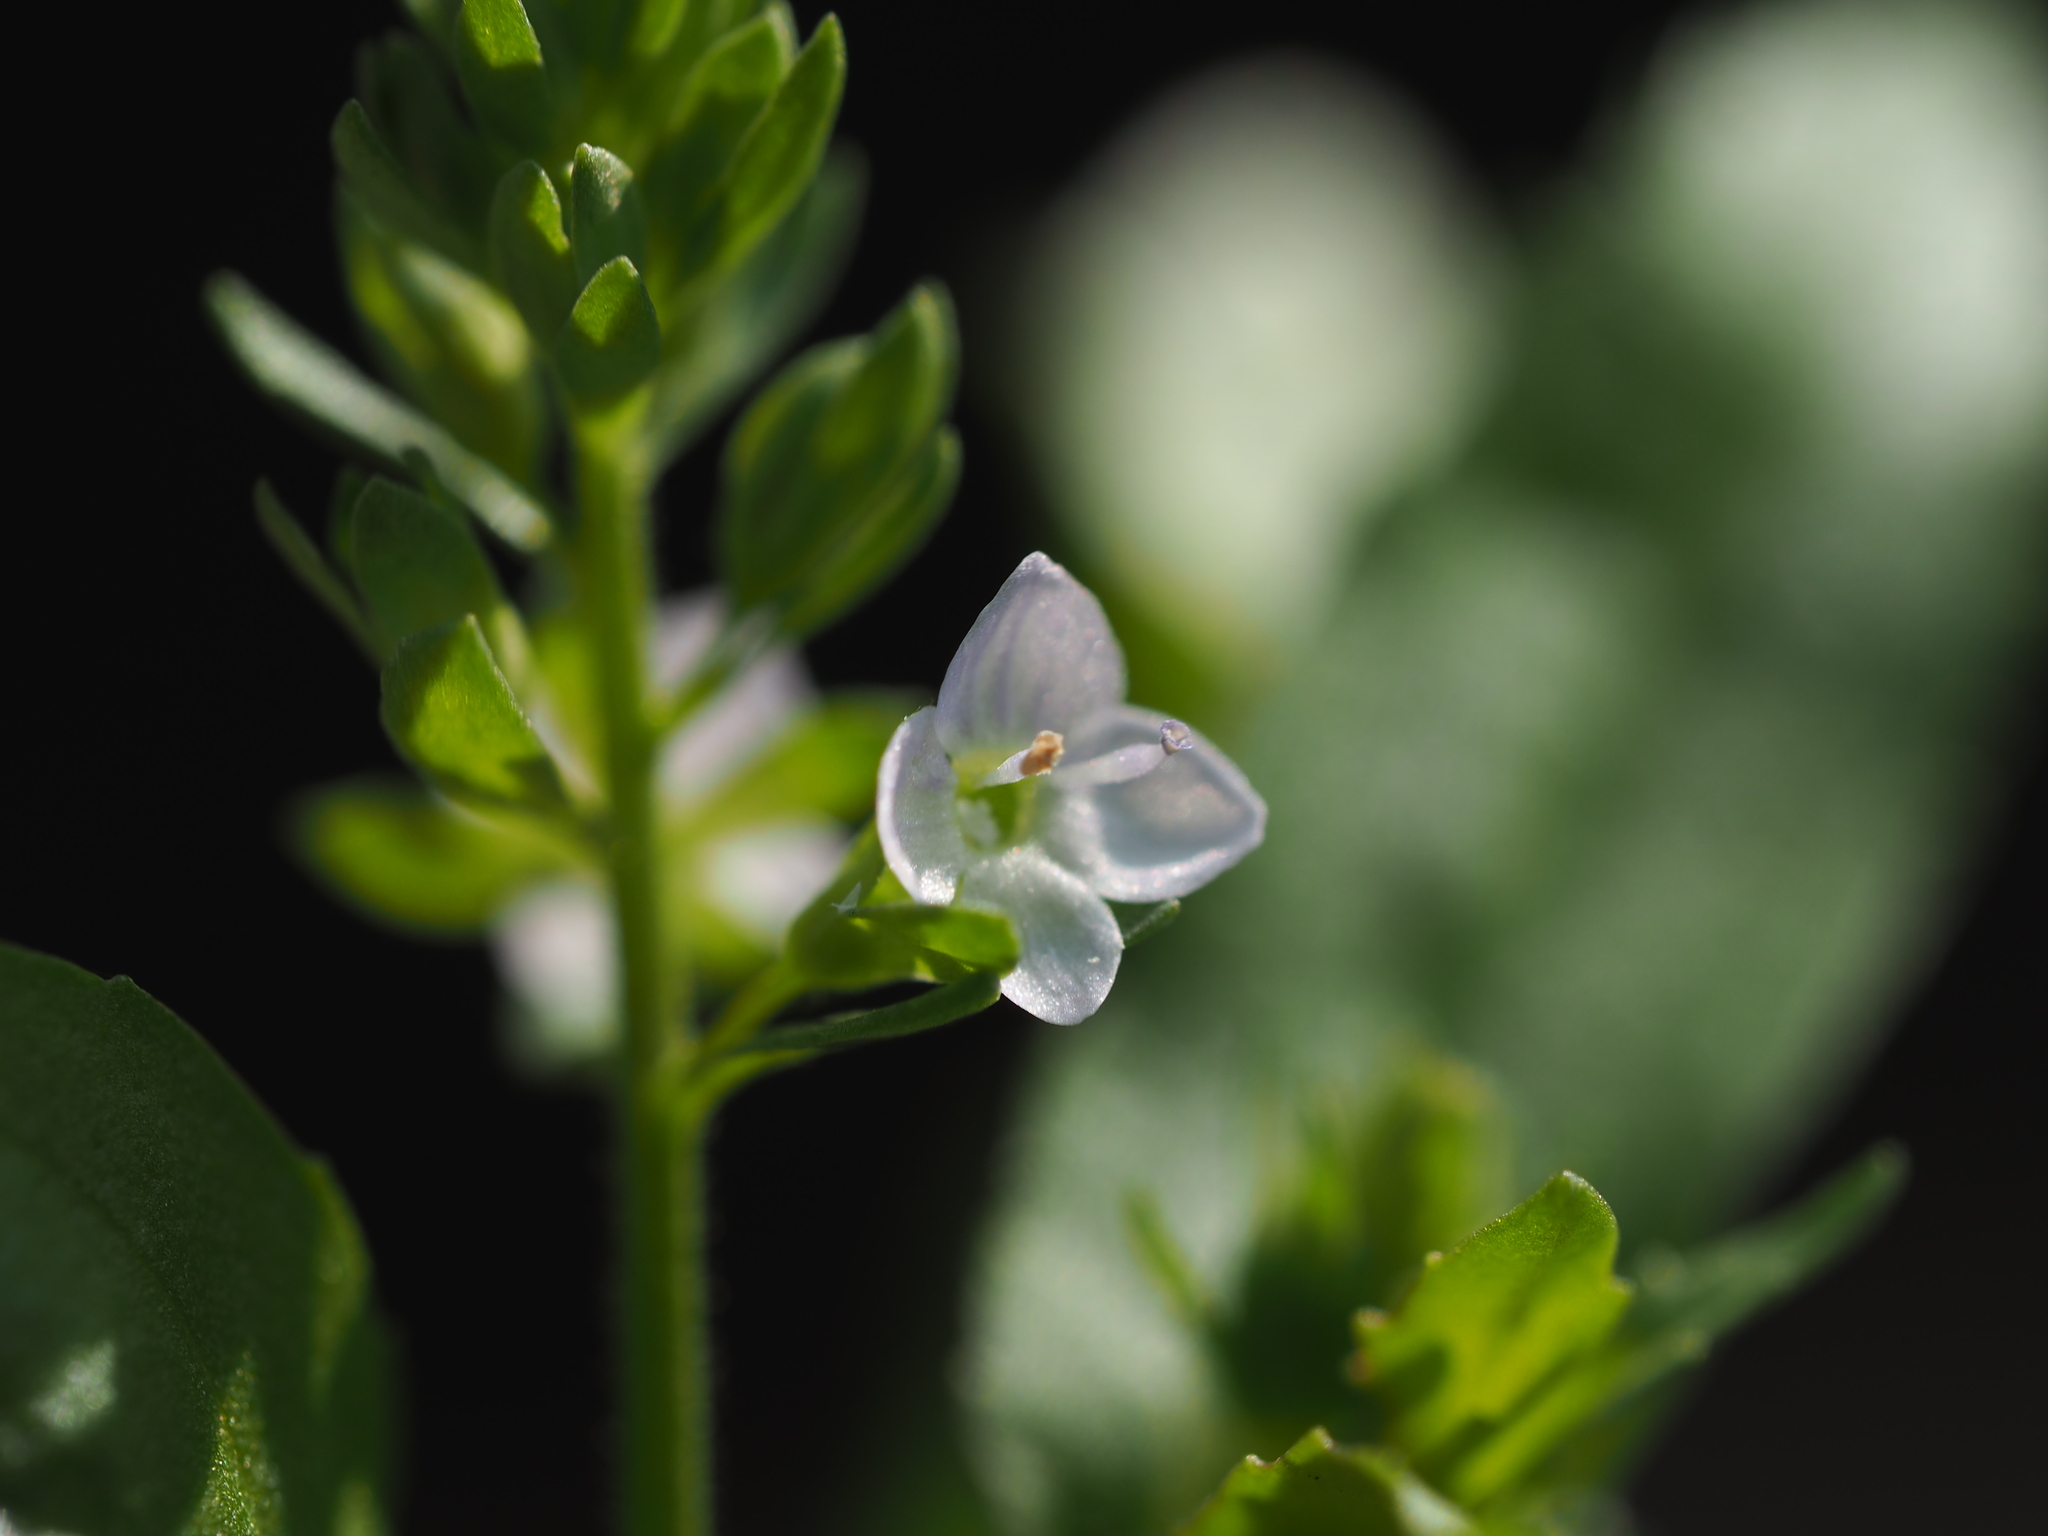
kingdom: Plantae
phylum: Tracheophyta
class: Magnoliopsida
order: Lamiales
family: Plantaginaceae
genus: Veronica
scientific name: Veronica undulata
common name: Undulate speedwell
